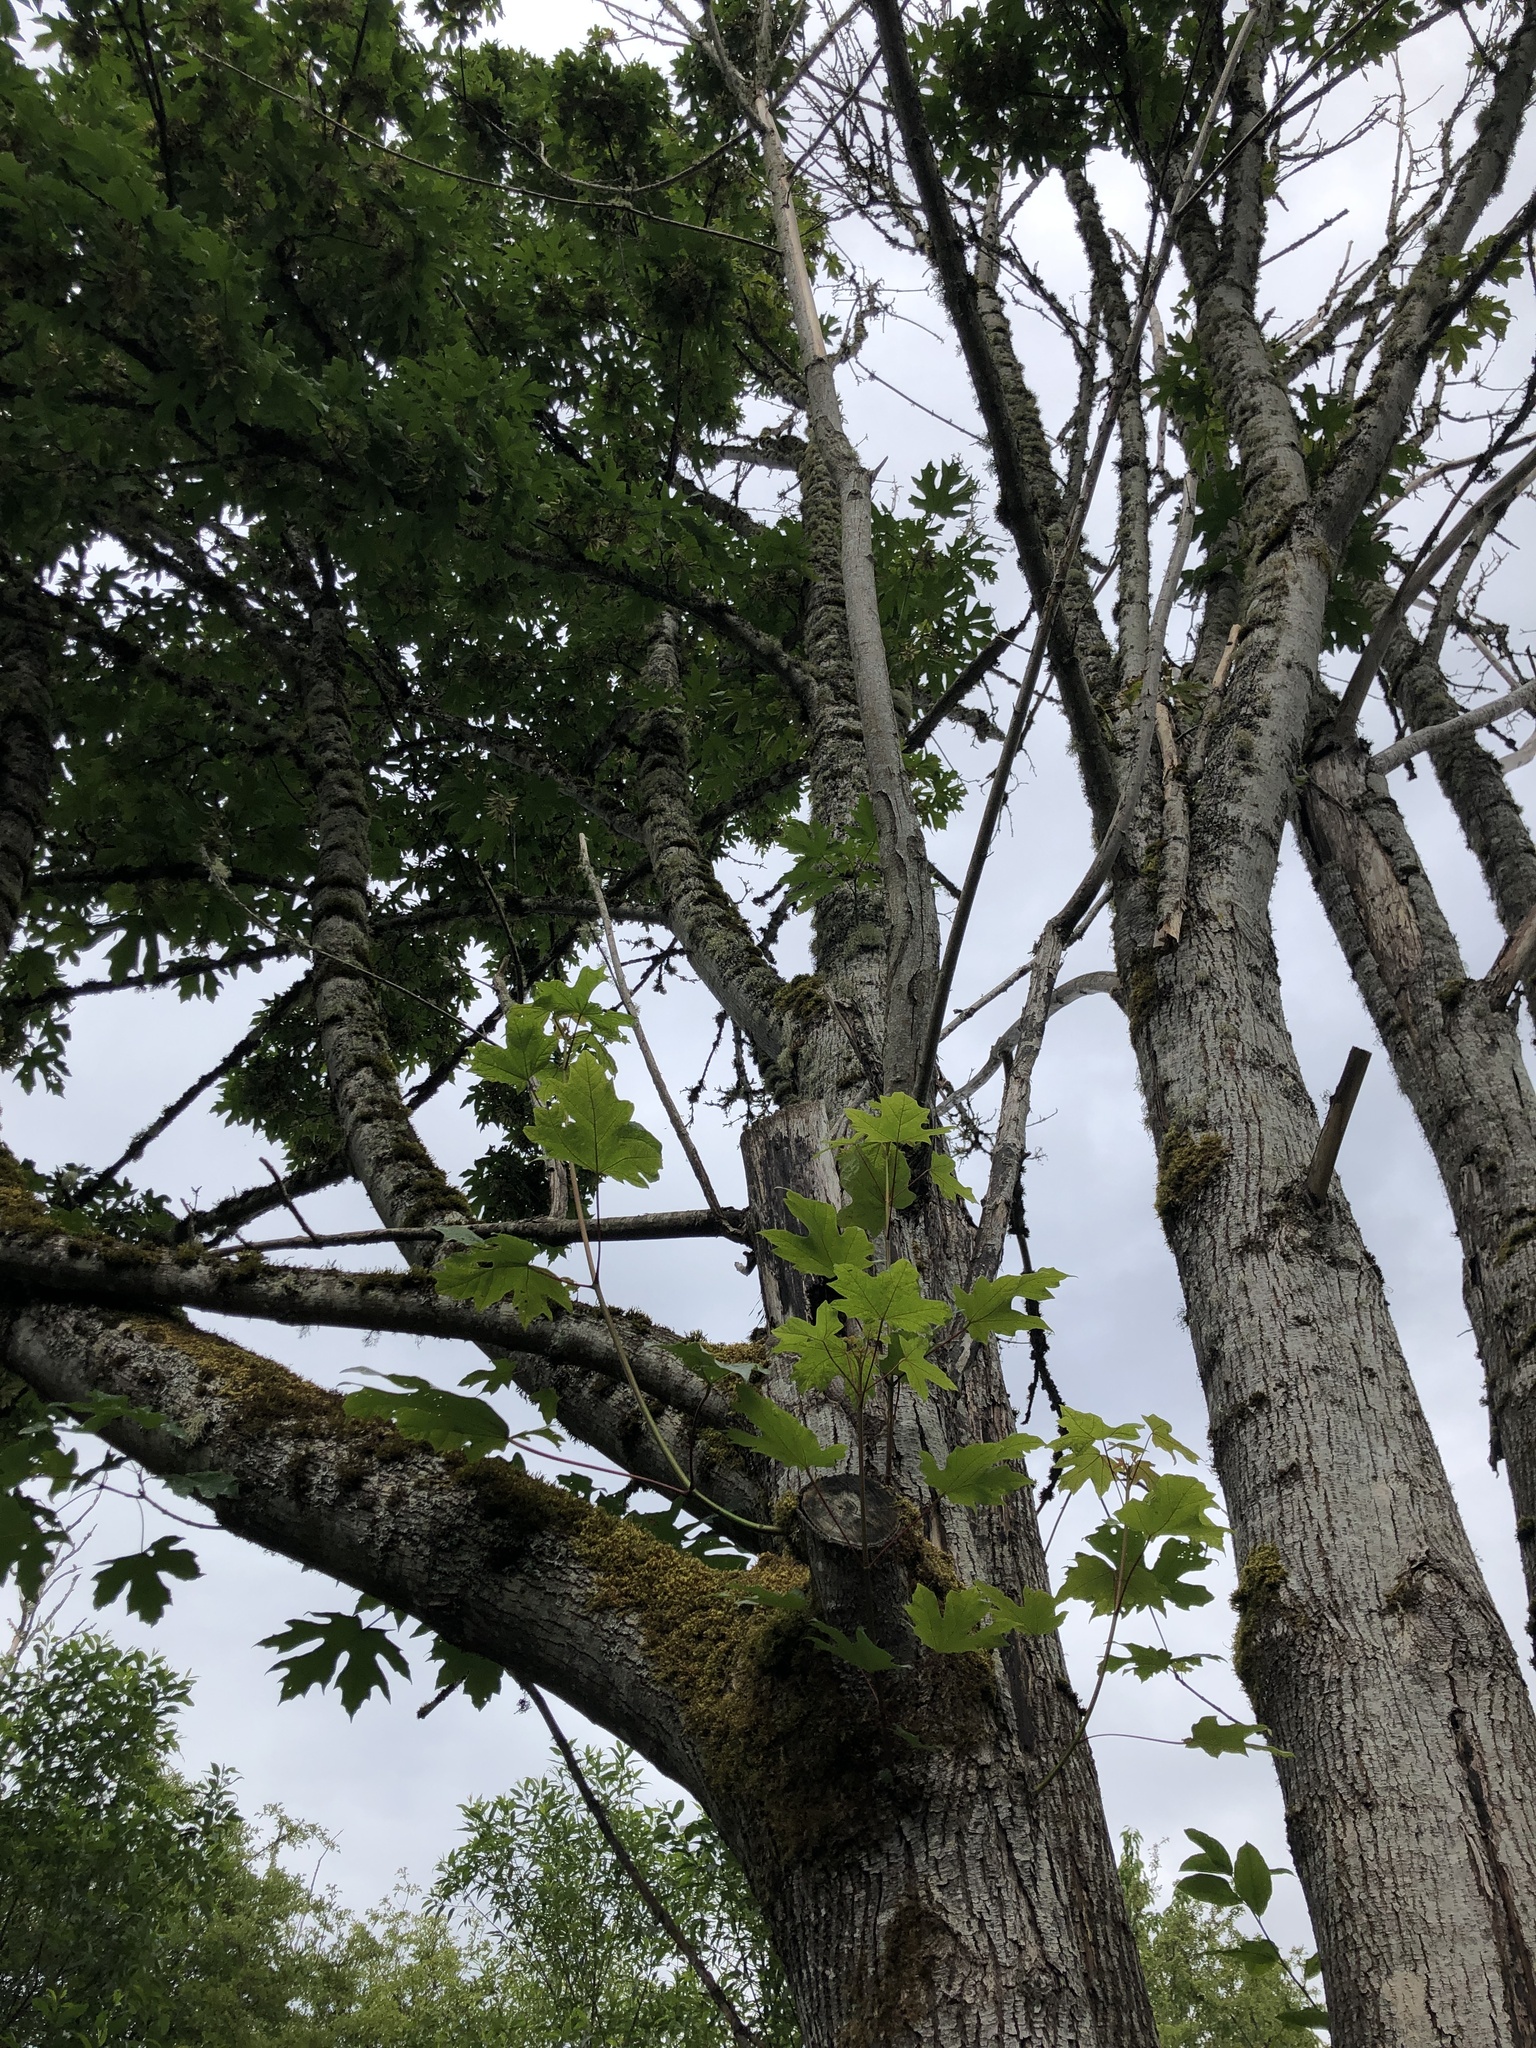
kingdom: Plantae
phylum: Tracheophyta
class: Magnoliopsida
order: Sapindales
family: Sapindaceae
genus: Acer
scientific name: Acer macrophyllum
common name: Oregon maple
